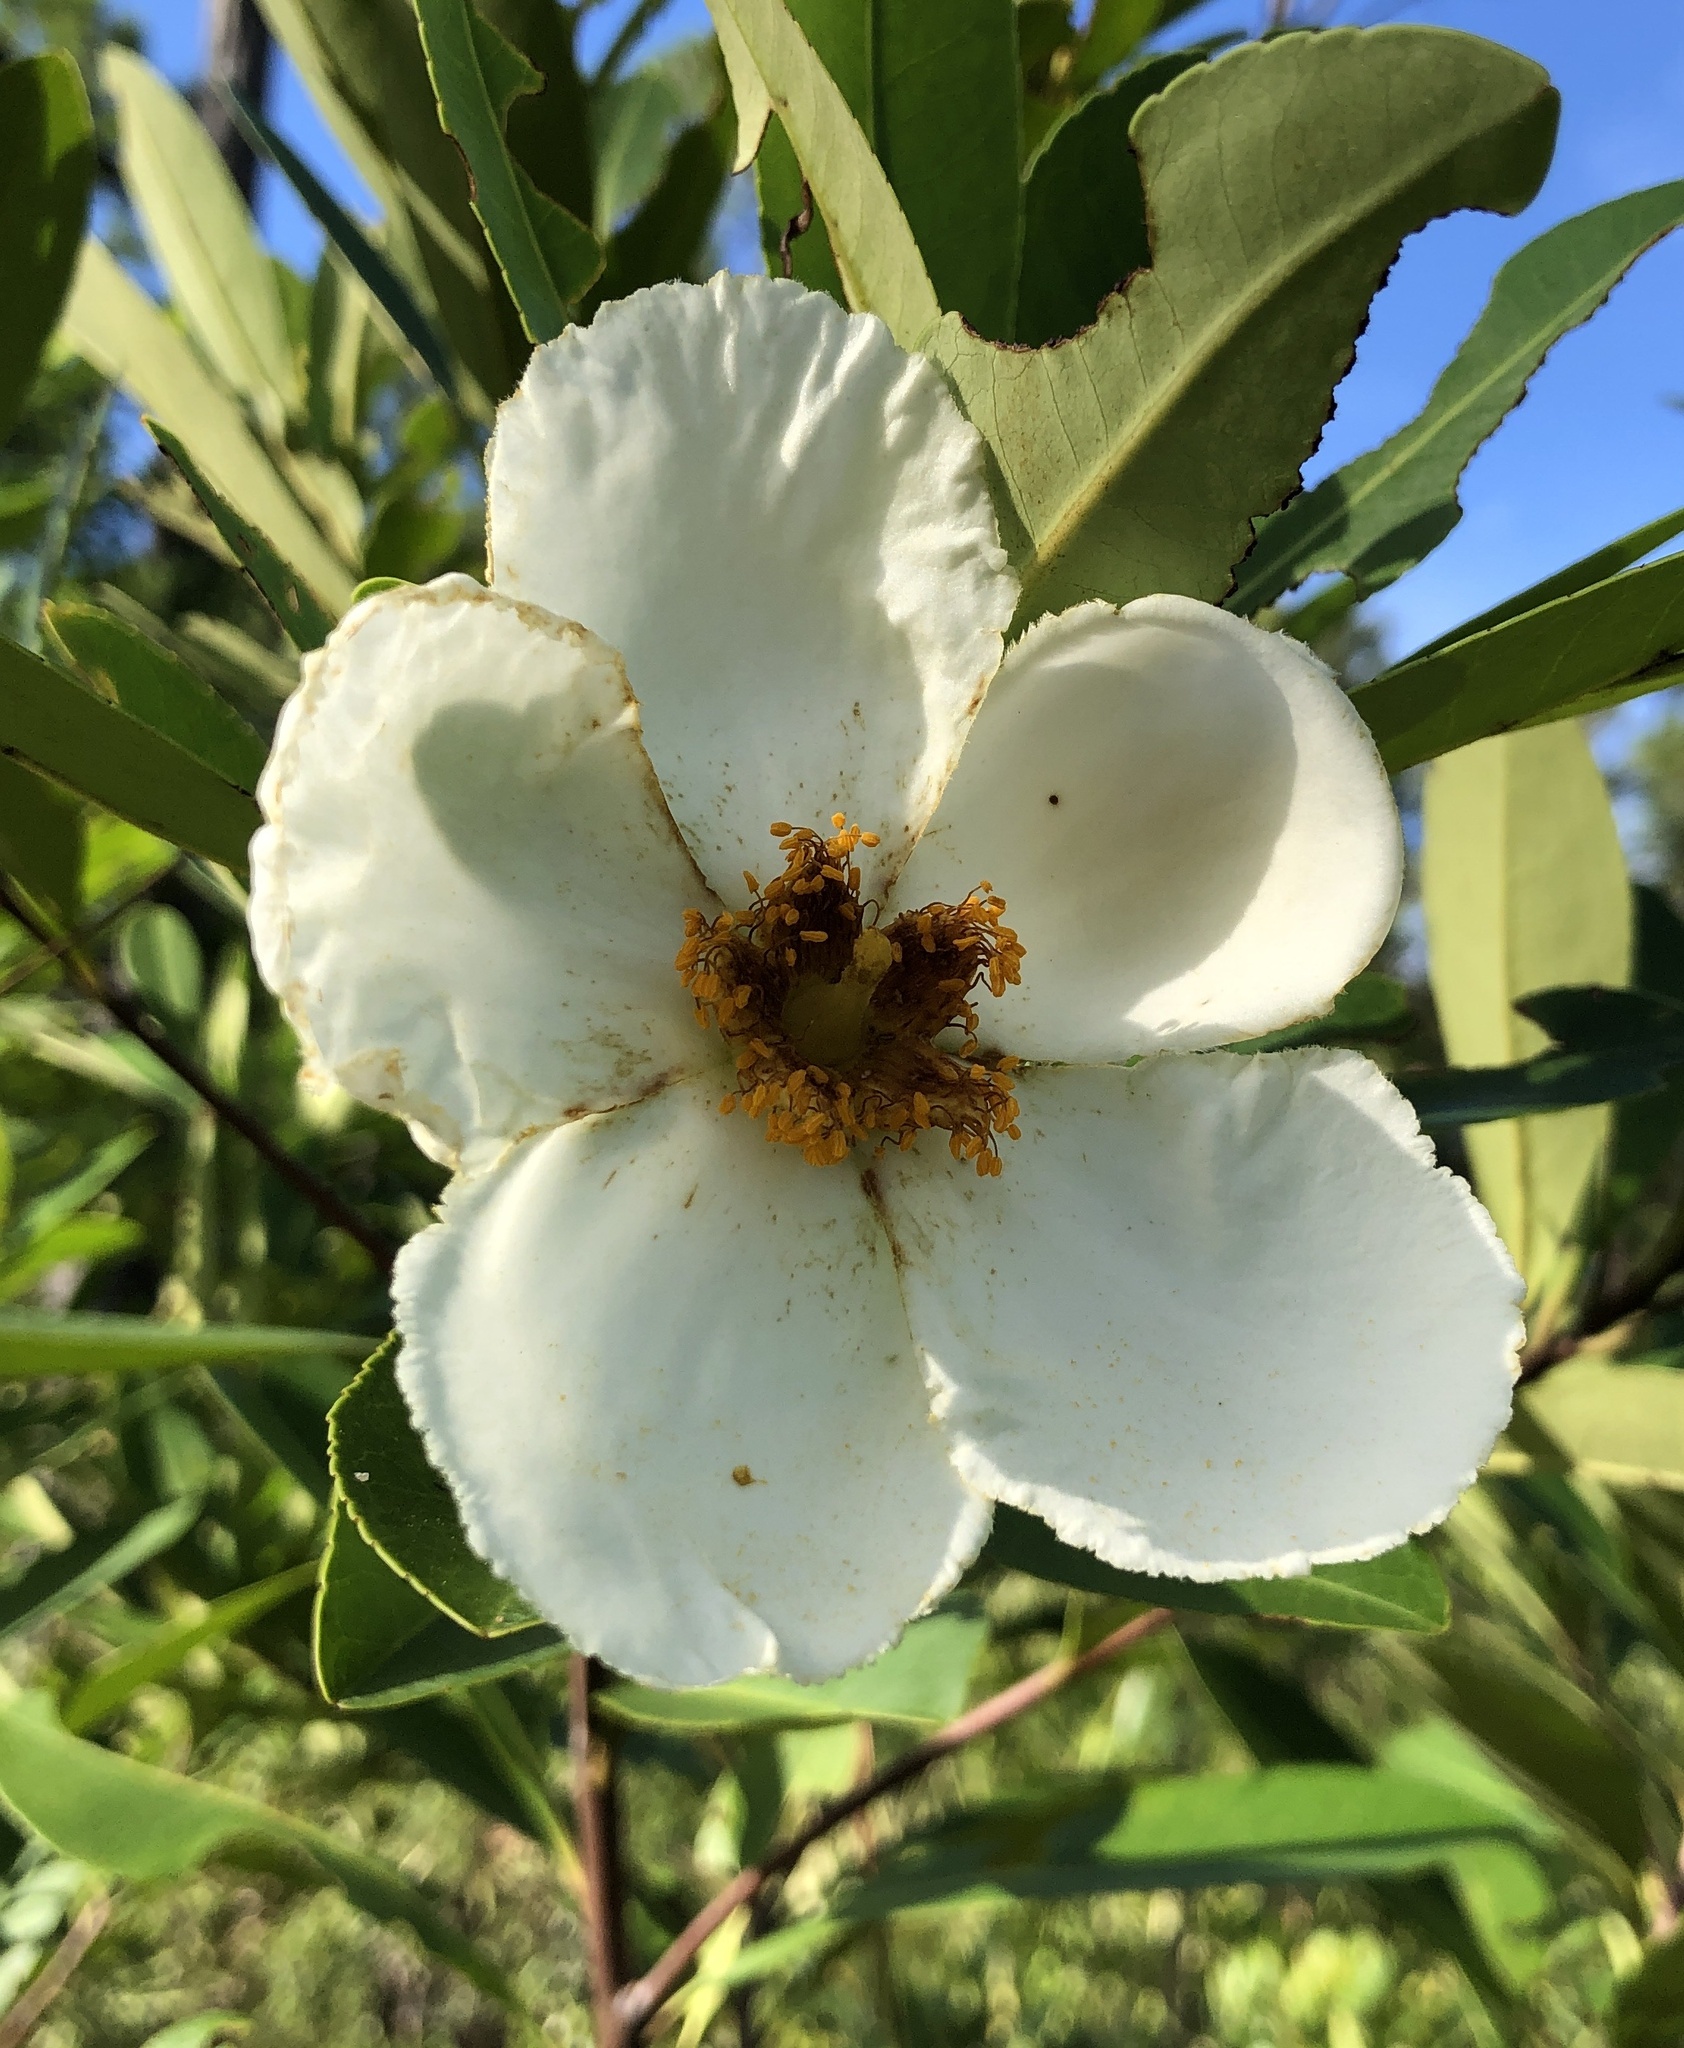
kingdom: Plantae
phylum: Tracheophyta
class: Magnoliopsida
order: Ericales
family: Theaceae
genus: Gordonia
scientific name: Gordonia lasianthus
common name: Loblolly bay
